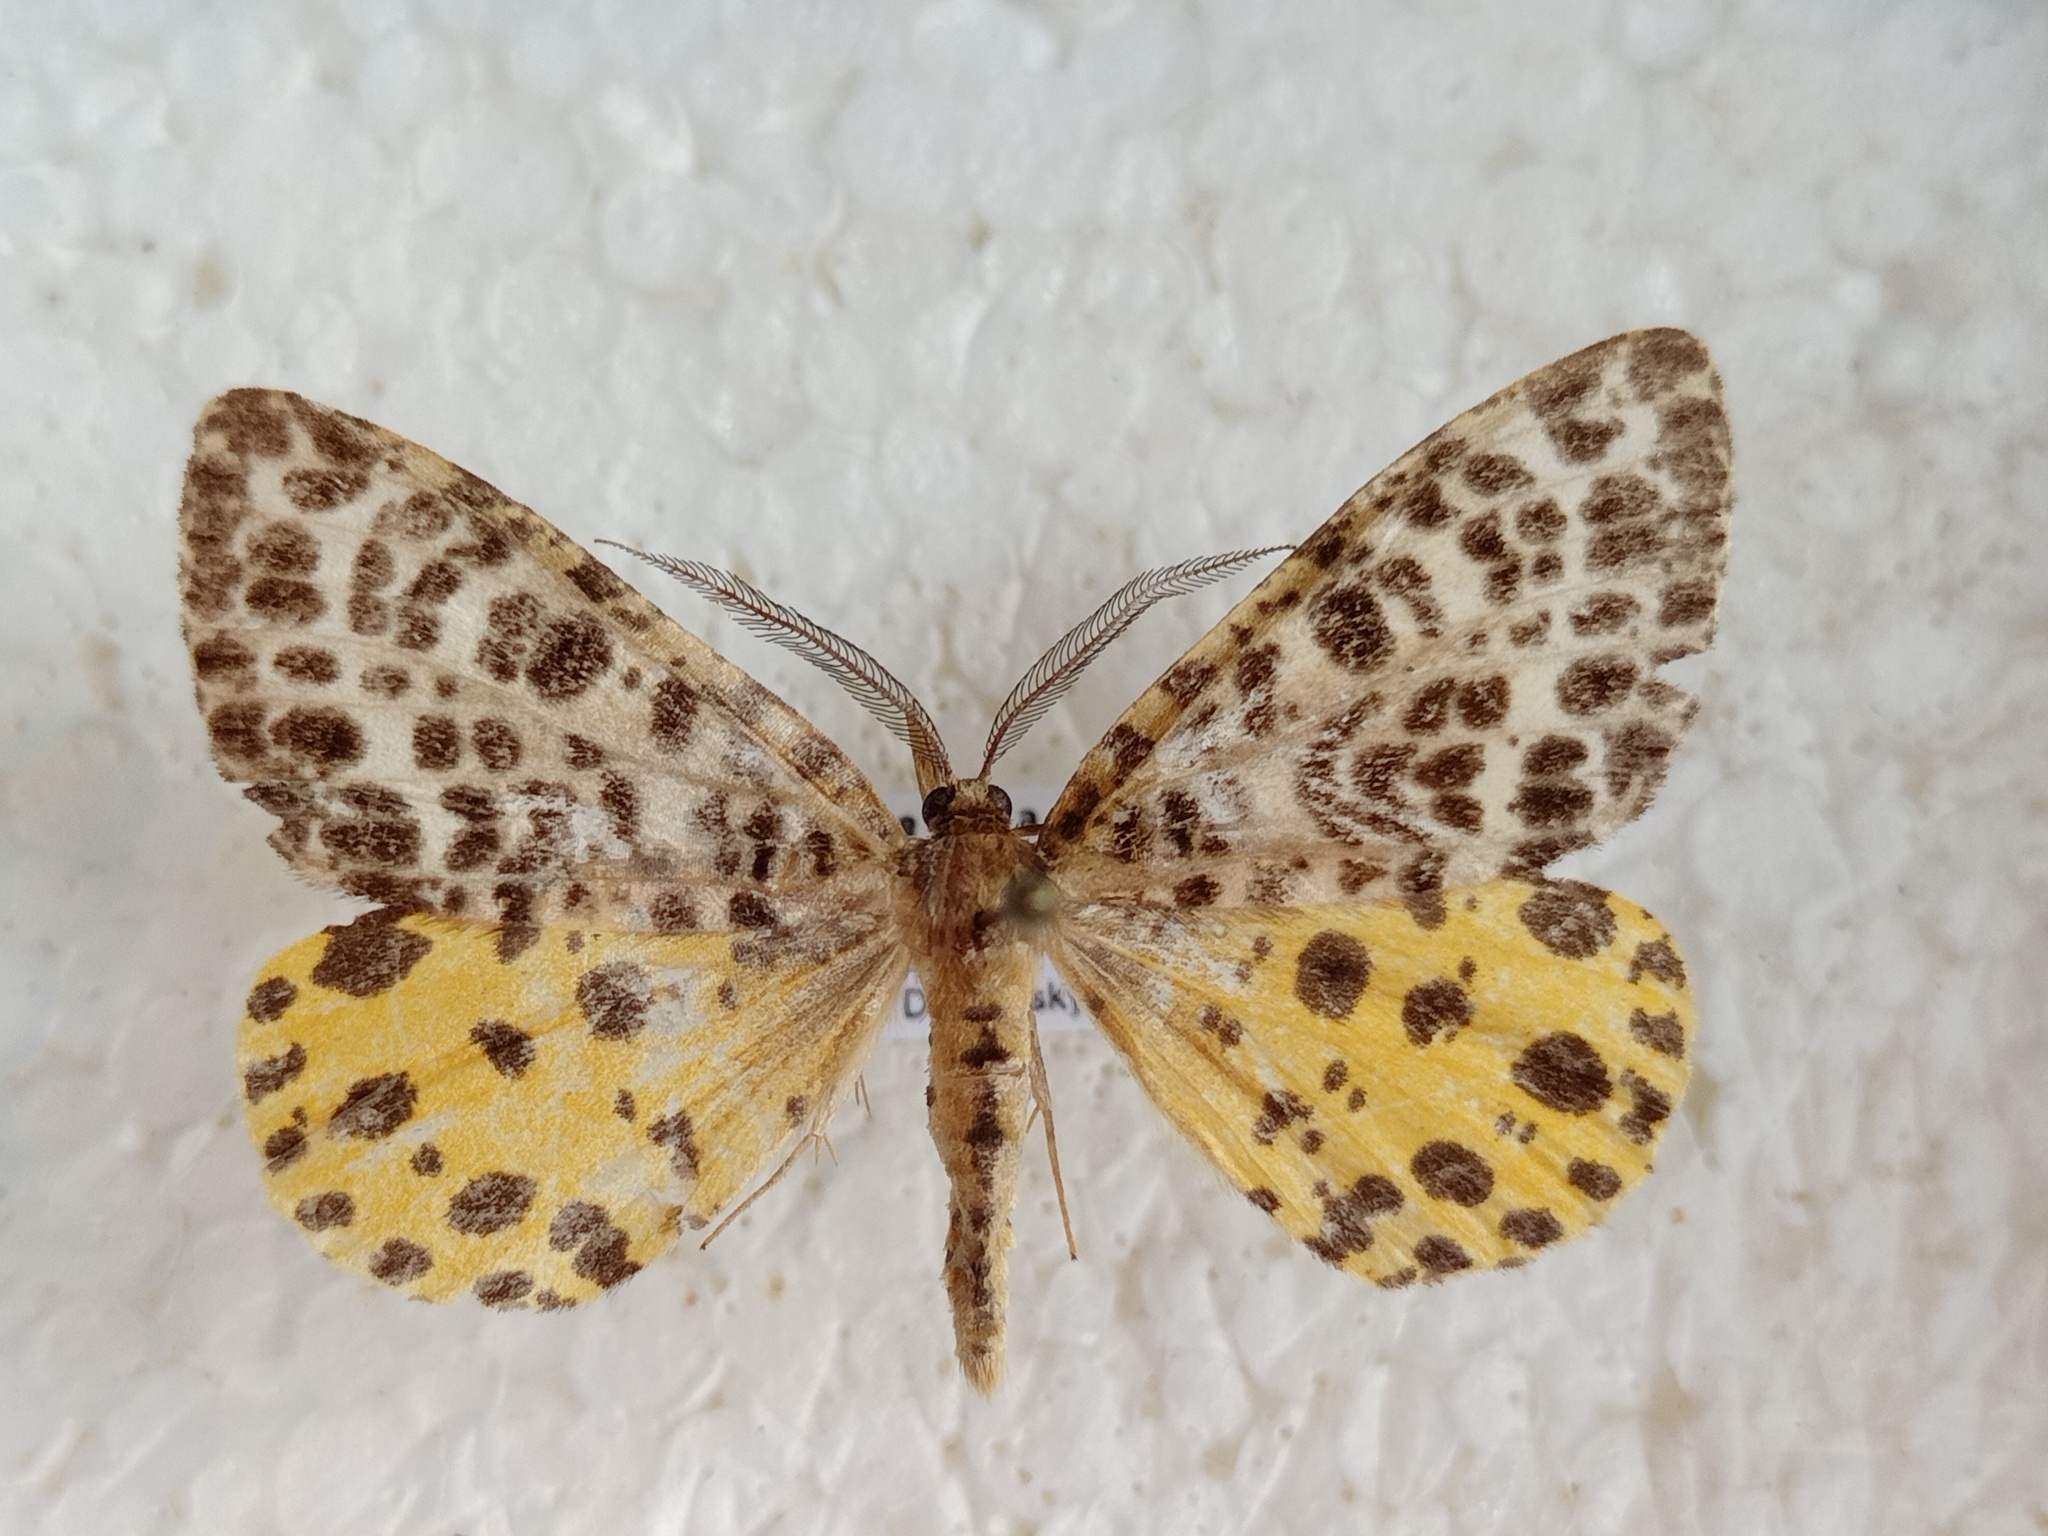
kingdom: Animalia
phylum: Arthropoda
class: Insecta
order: Lepidoptera
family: Geometridae
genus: Arichanna
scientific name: Arichanna melanaria
